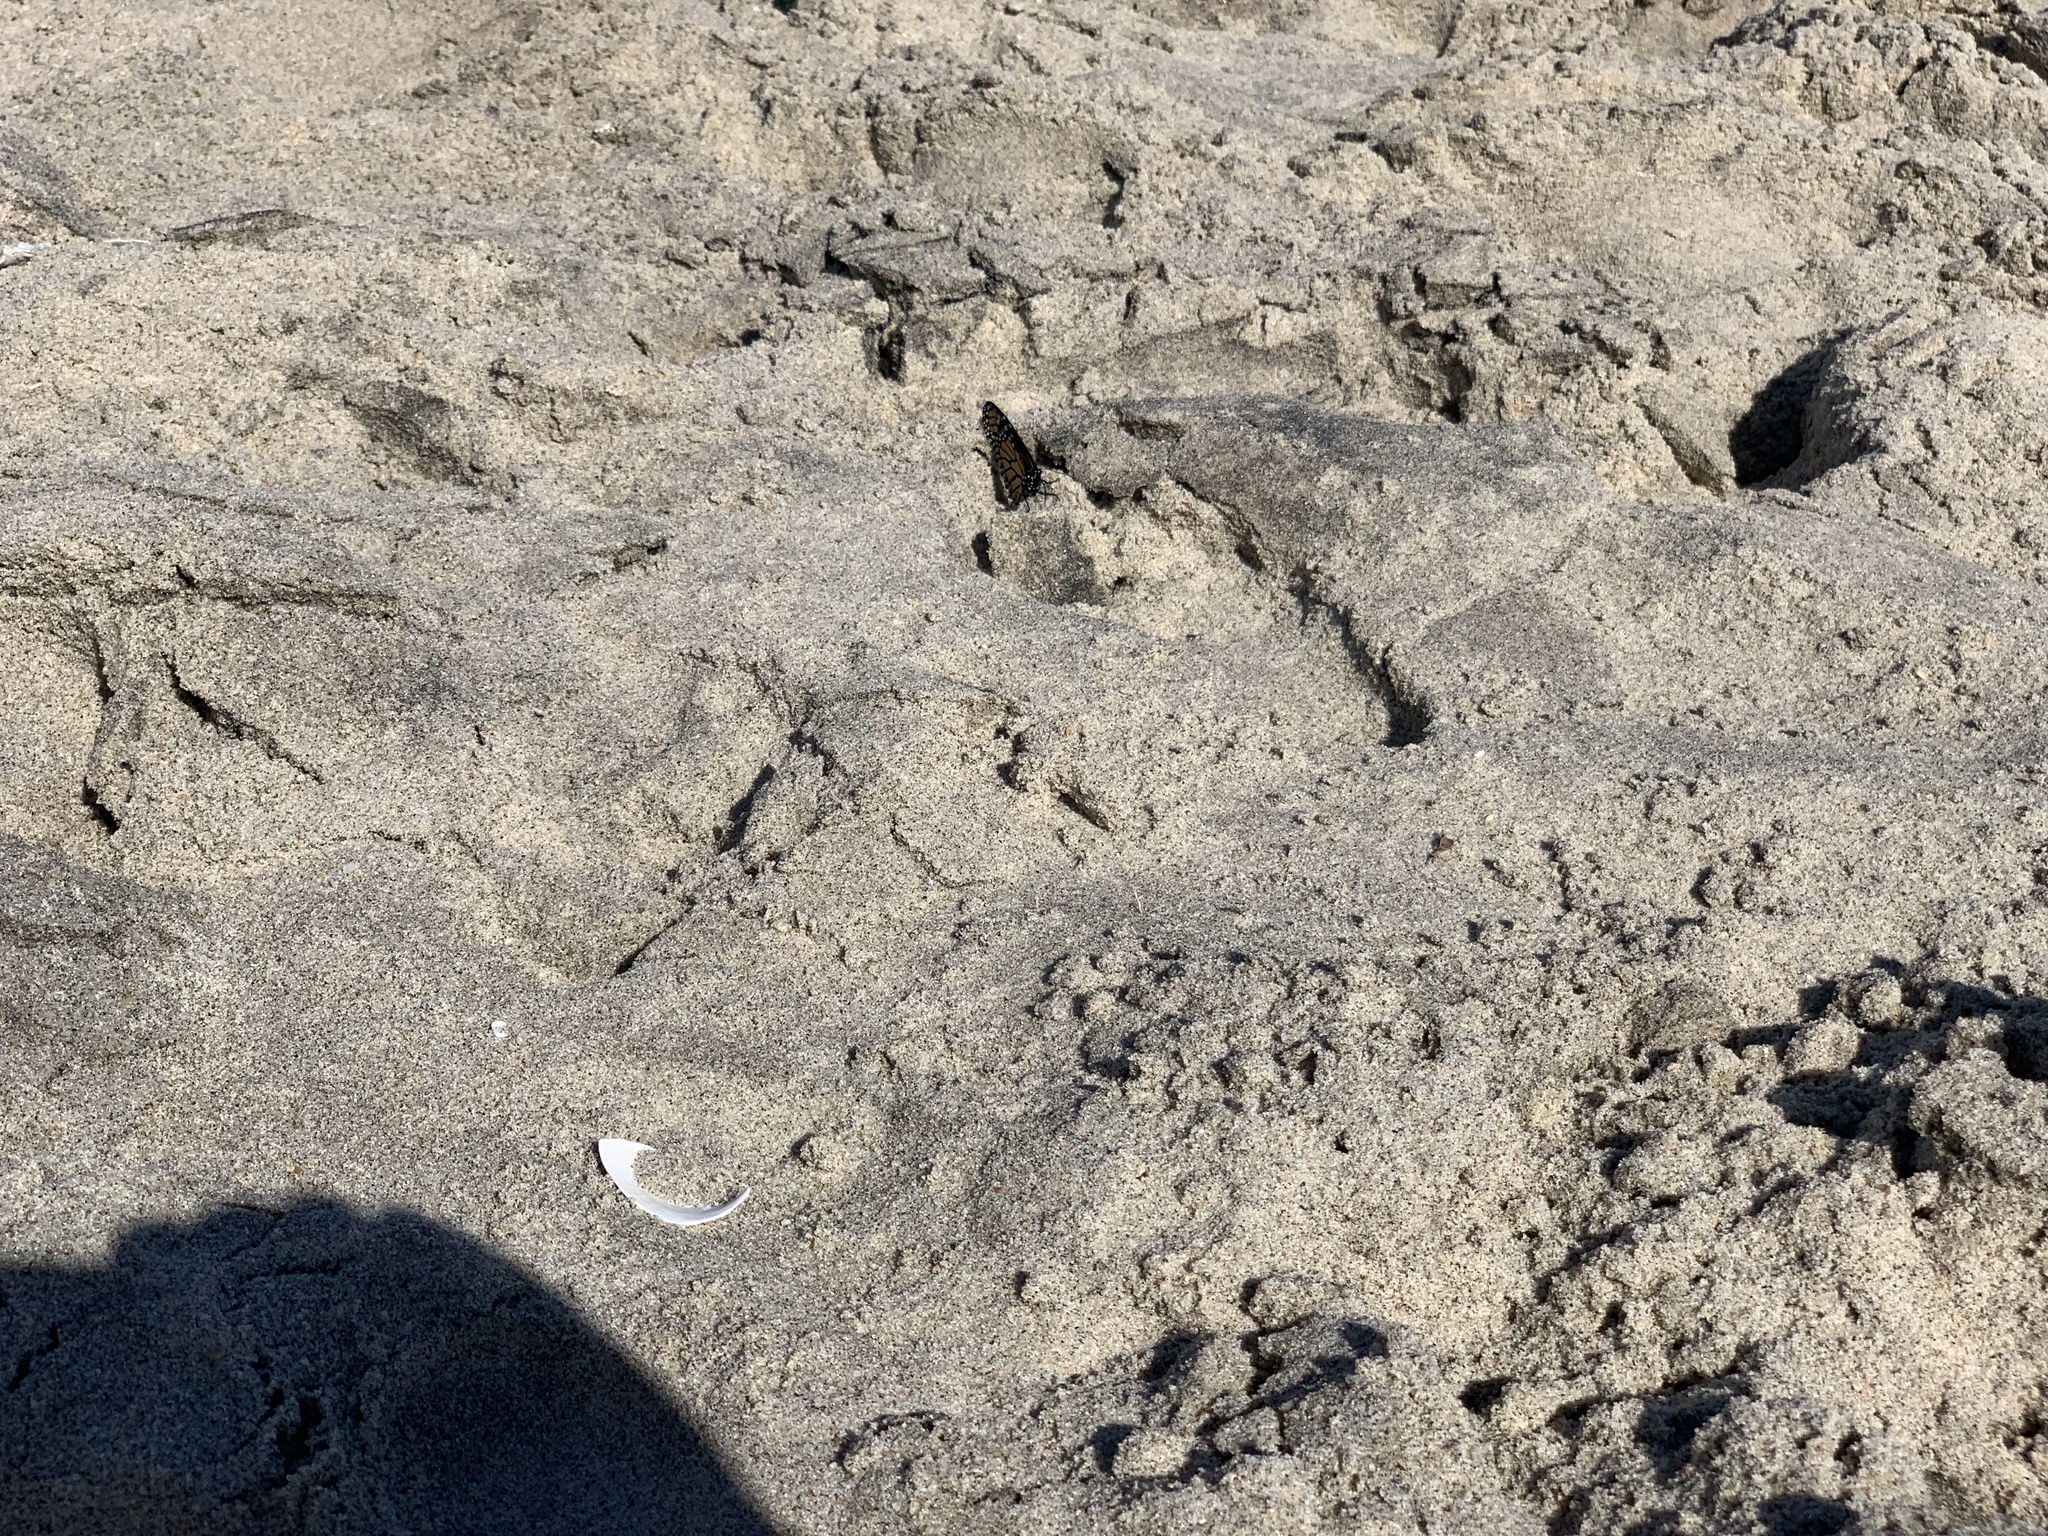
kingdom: Animalia
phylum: Arthropoda
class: Insecta
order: Lepidoptera
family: Nymphalidae
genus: Danaus
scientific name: Danaus plexippus
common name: Monarch
